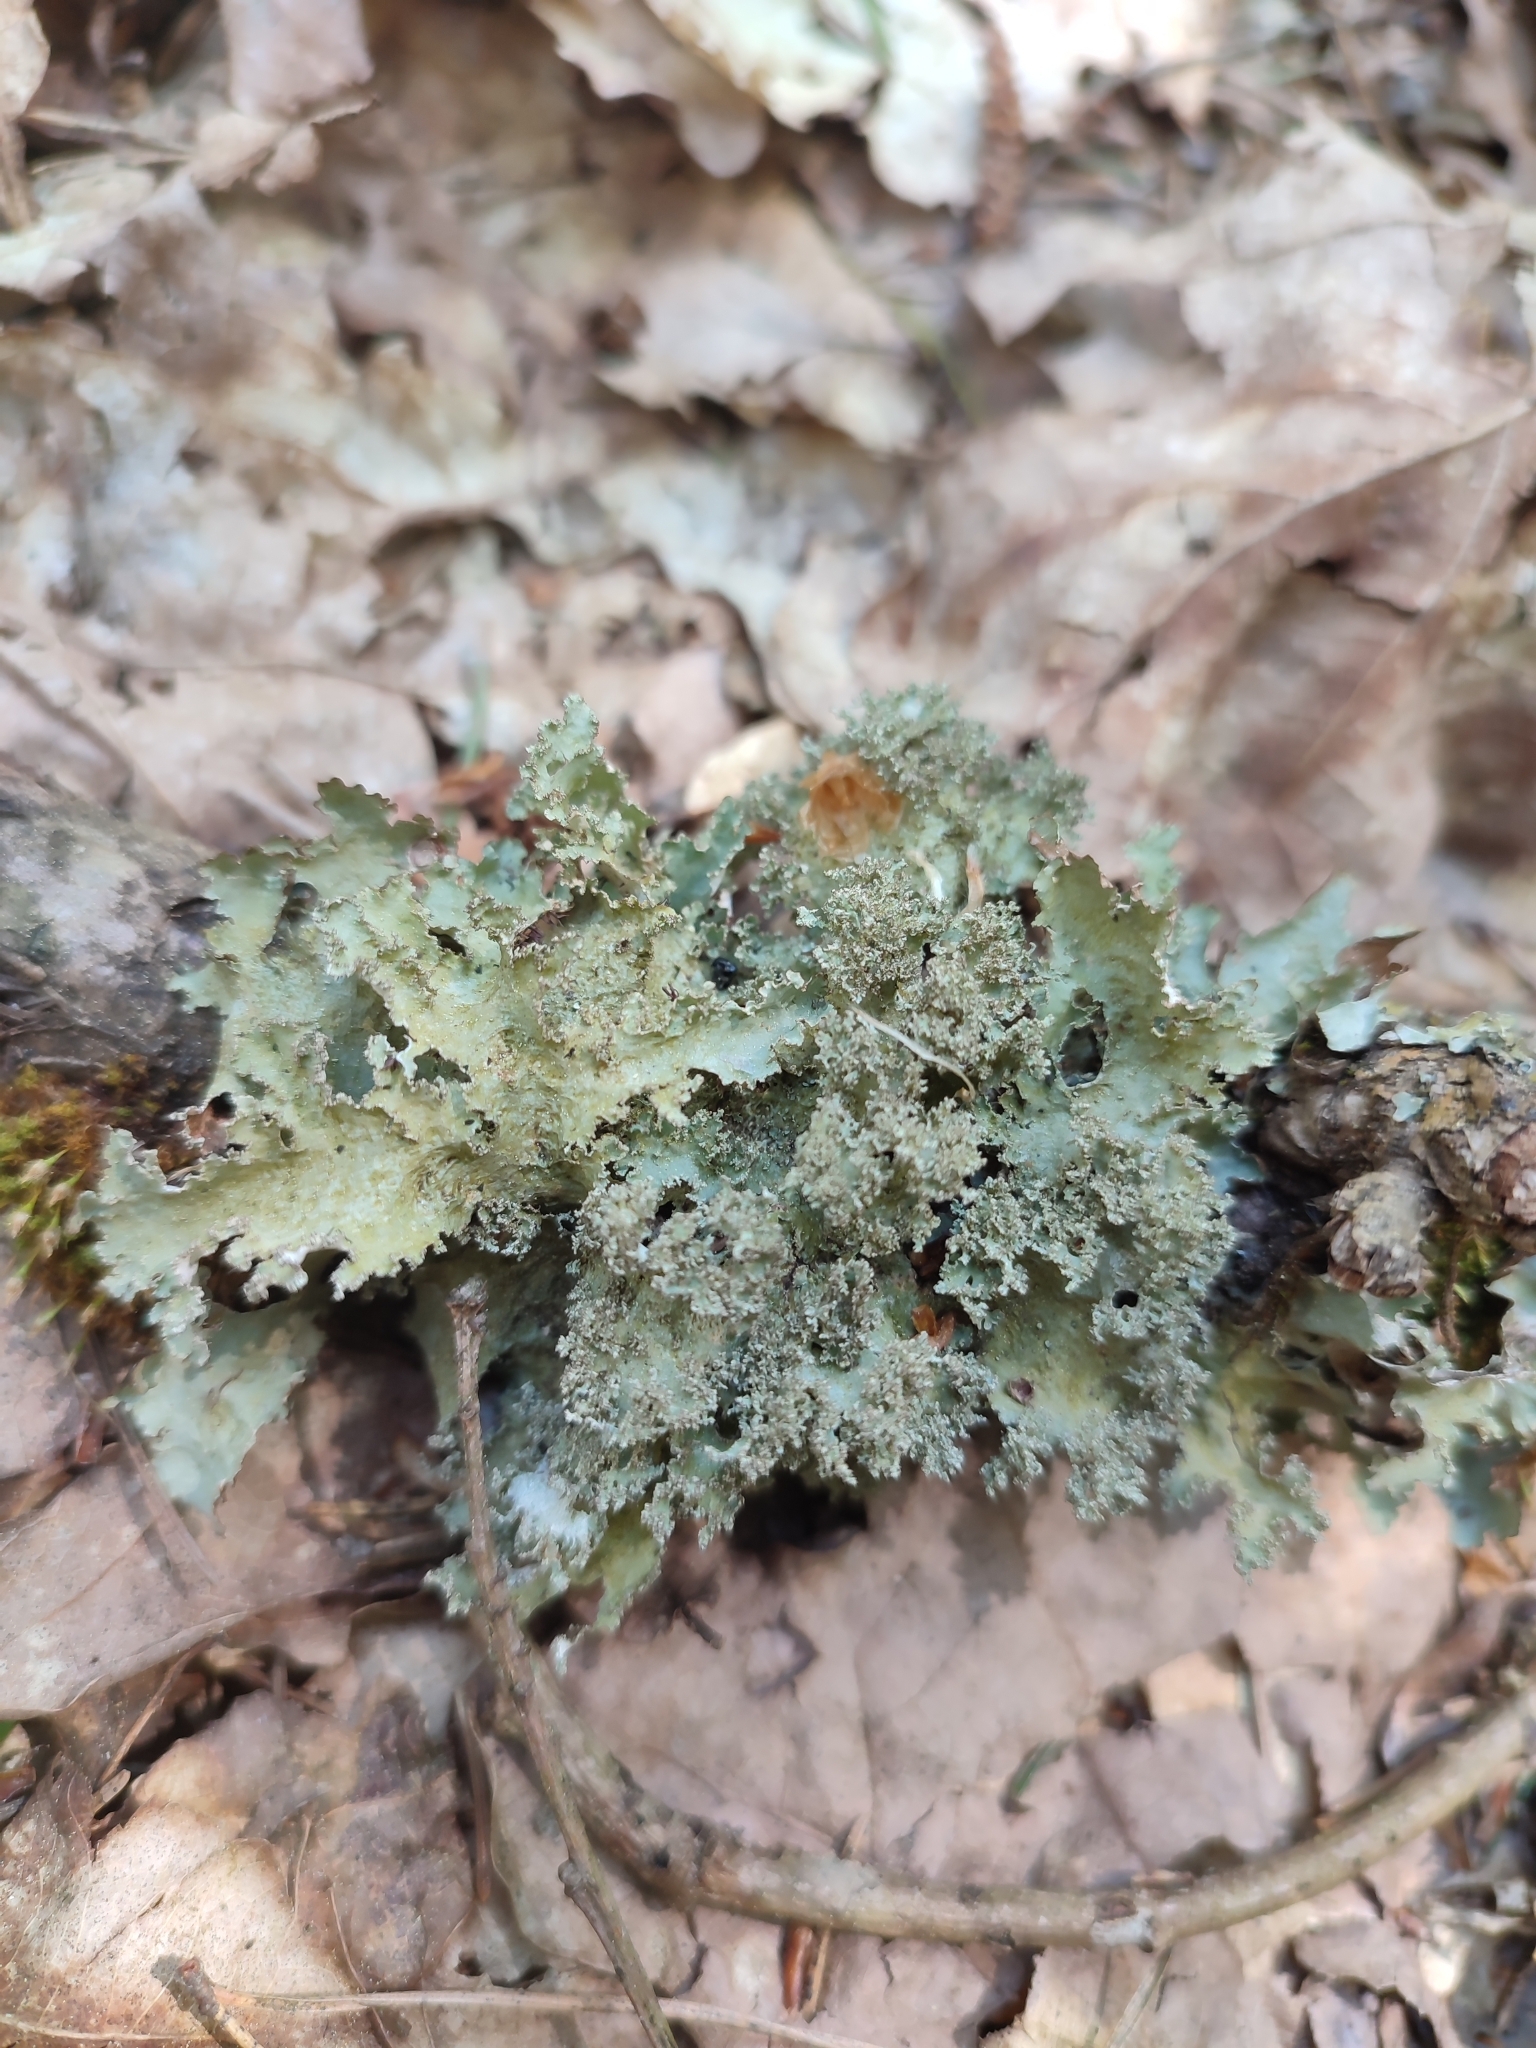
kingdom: Fungi
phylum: Ascomycota
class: Lecanoromycetes
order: Lecanorales
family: Parmeliaceae
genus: Platismatia
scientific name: Platismatia glauca
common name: Varied rag lichen
